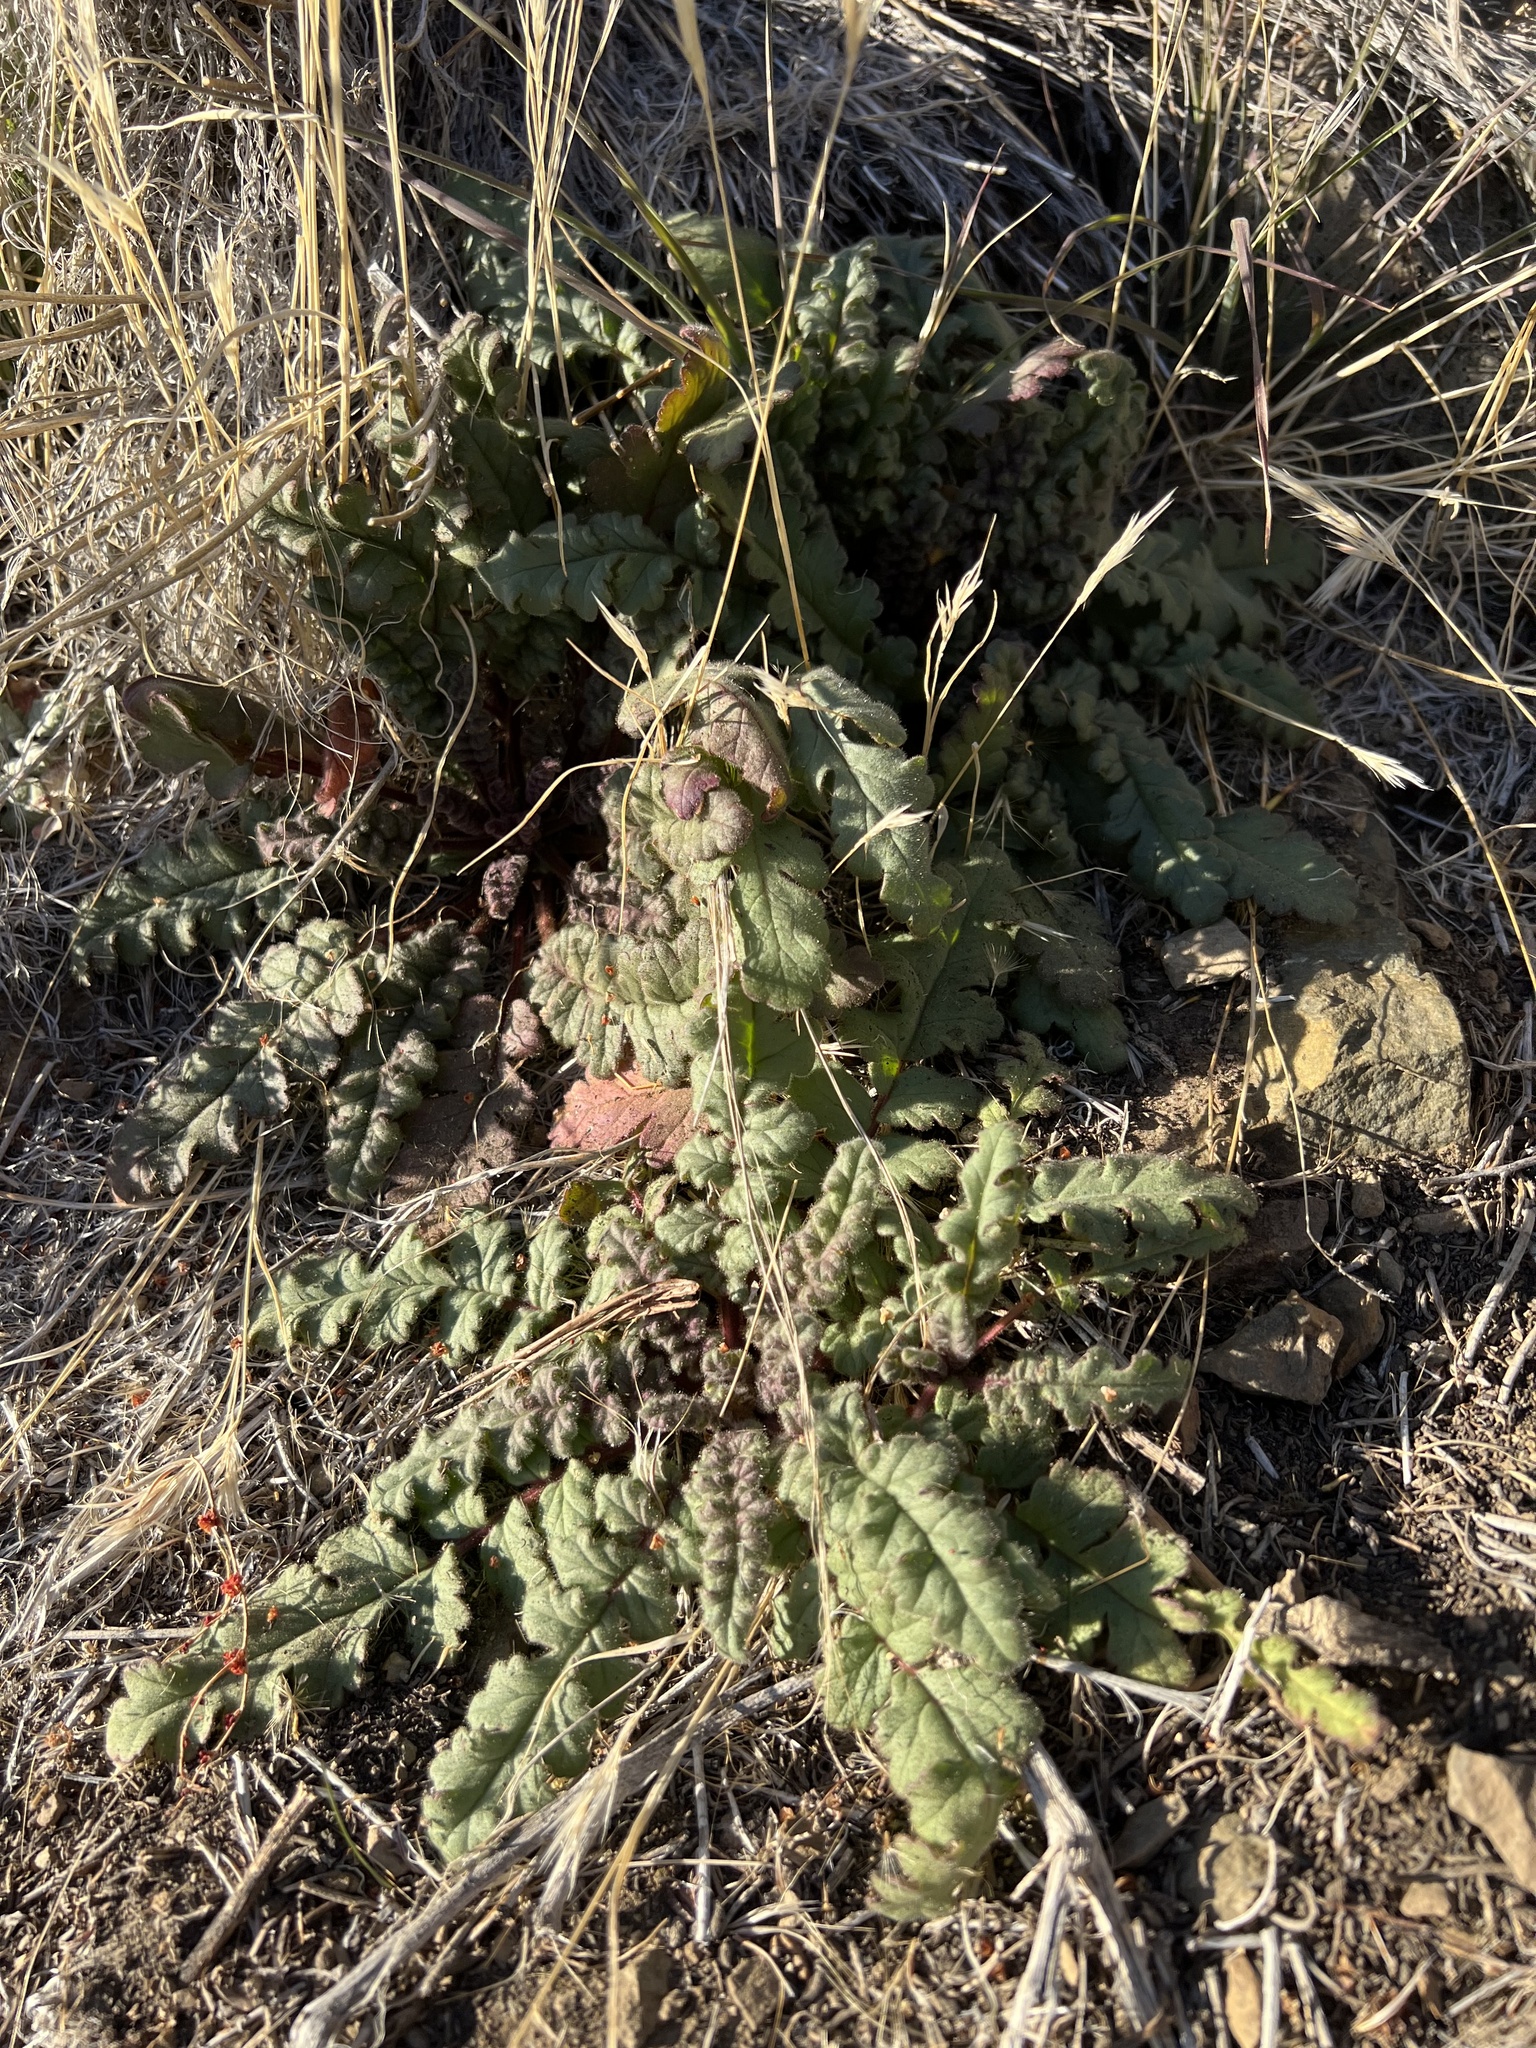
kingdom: Plantae
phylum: Tracheophyta
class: Magnoliopsida
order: Boraginales
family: Hydrophyllaceae
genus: Phacelia
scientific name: Phacelia crenulata
